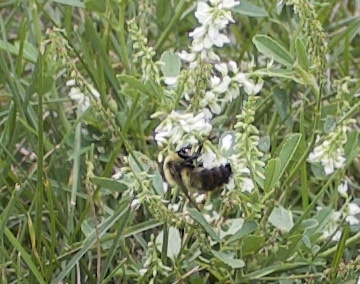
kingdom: Animalia
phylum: Arthropoda
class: Insecta
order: Hymenoptera
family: Apidae
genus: Bombus
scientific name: Bombus rufocinctus
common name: Red-belted bumble bee
